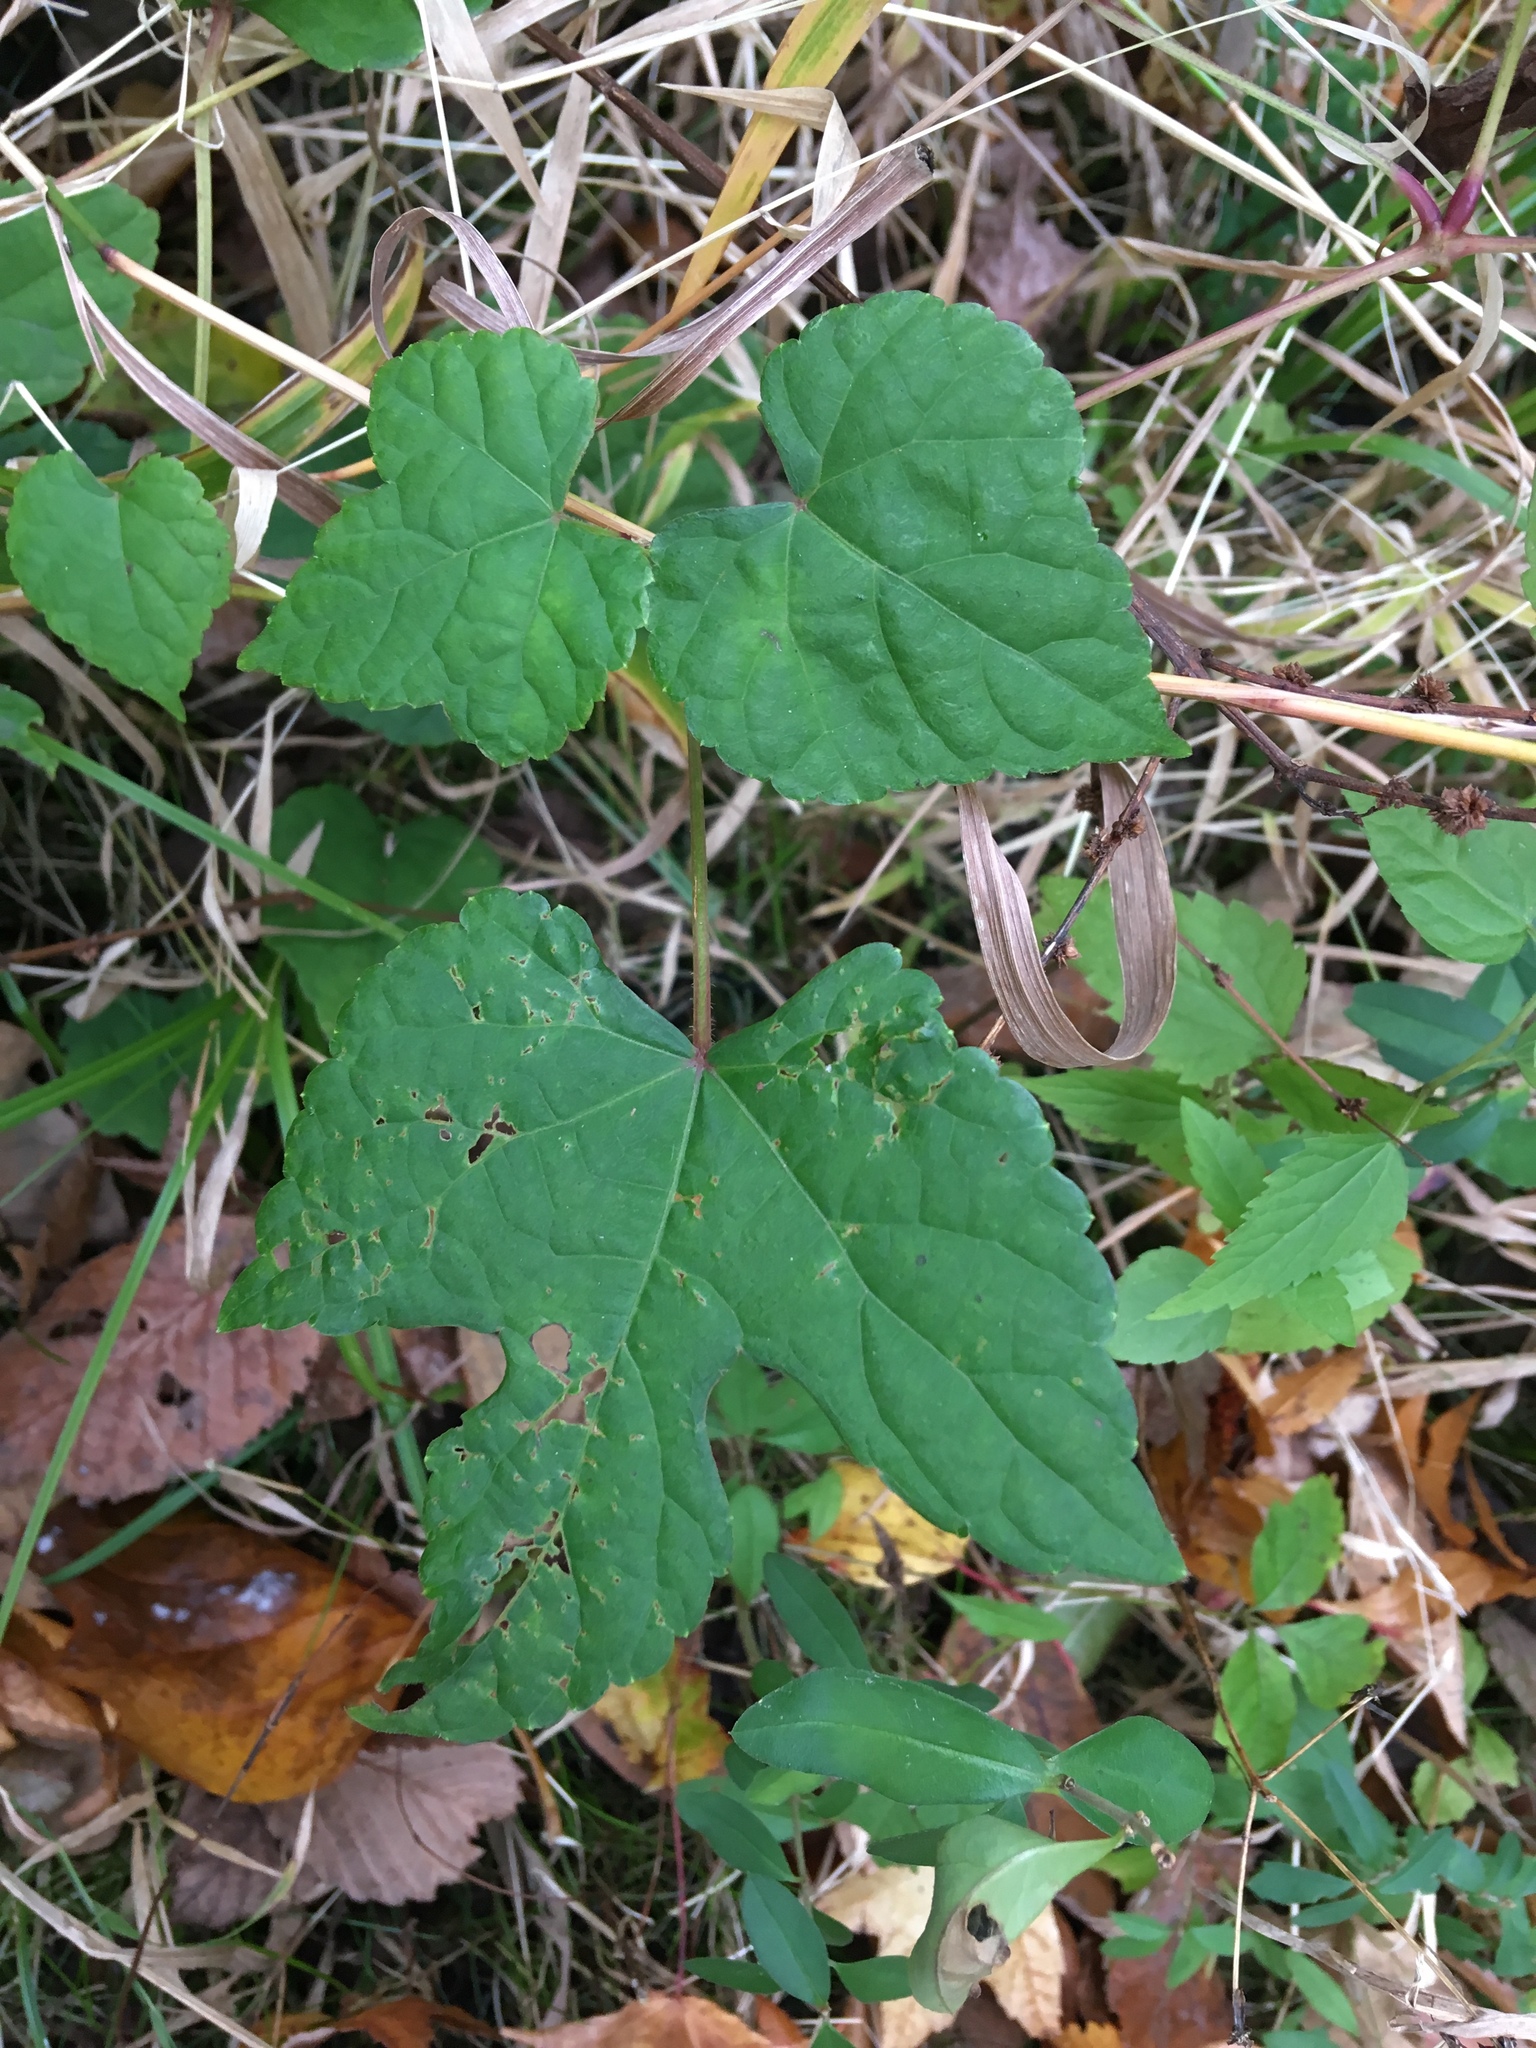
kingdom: Plantae
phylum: Tracheophyta
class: Magnoliopsida
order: Vitales
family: Vitaceae
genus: Ampelopsis
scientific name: Ampelopsis glandulosa
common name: Amur peppervine
